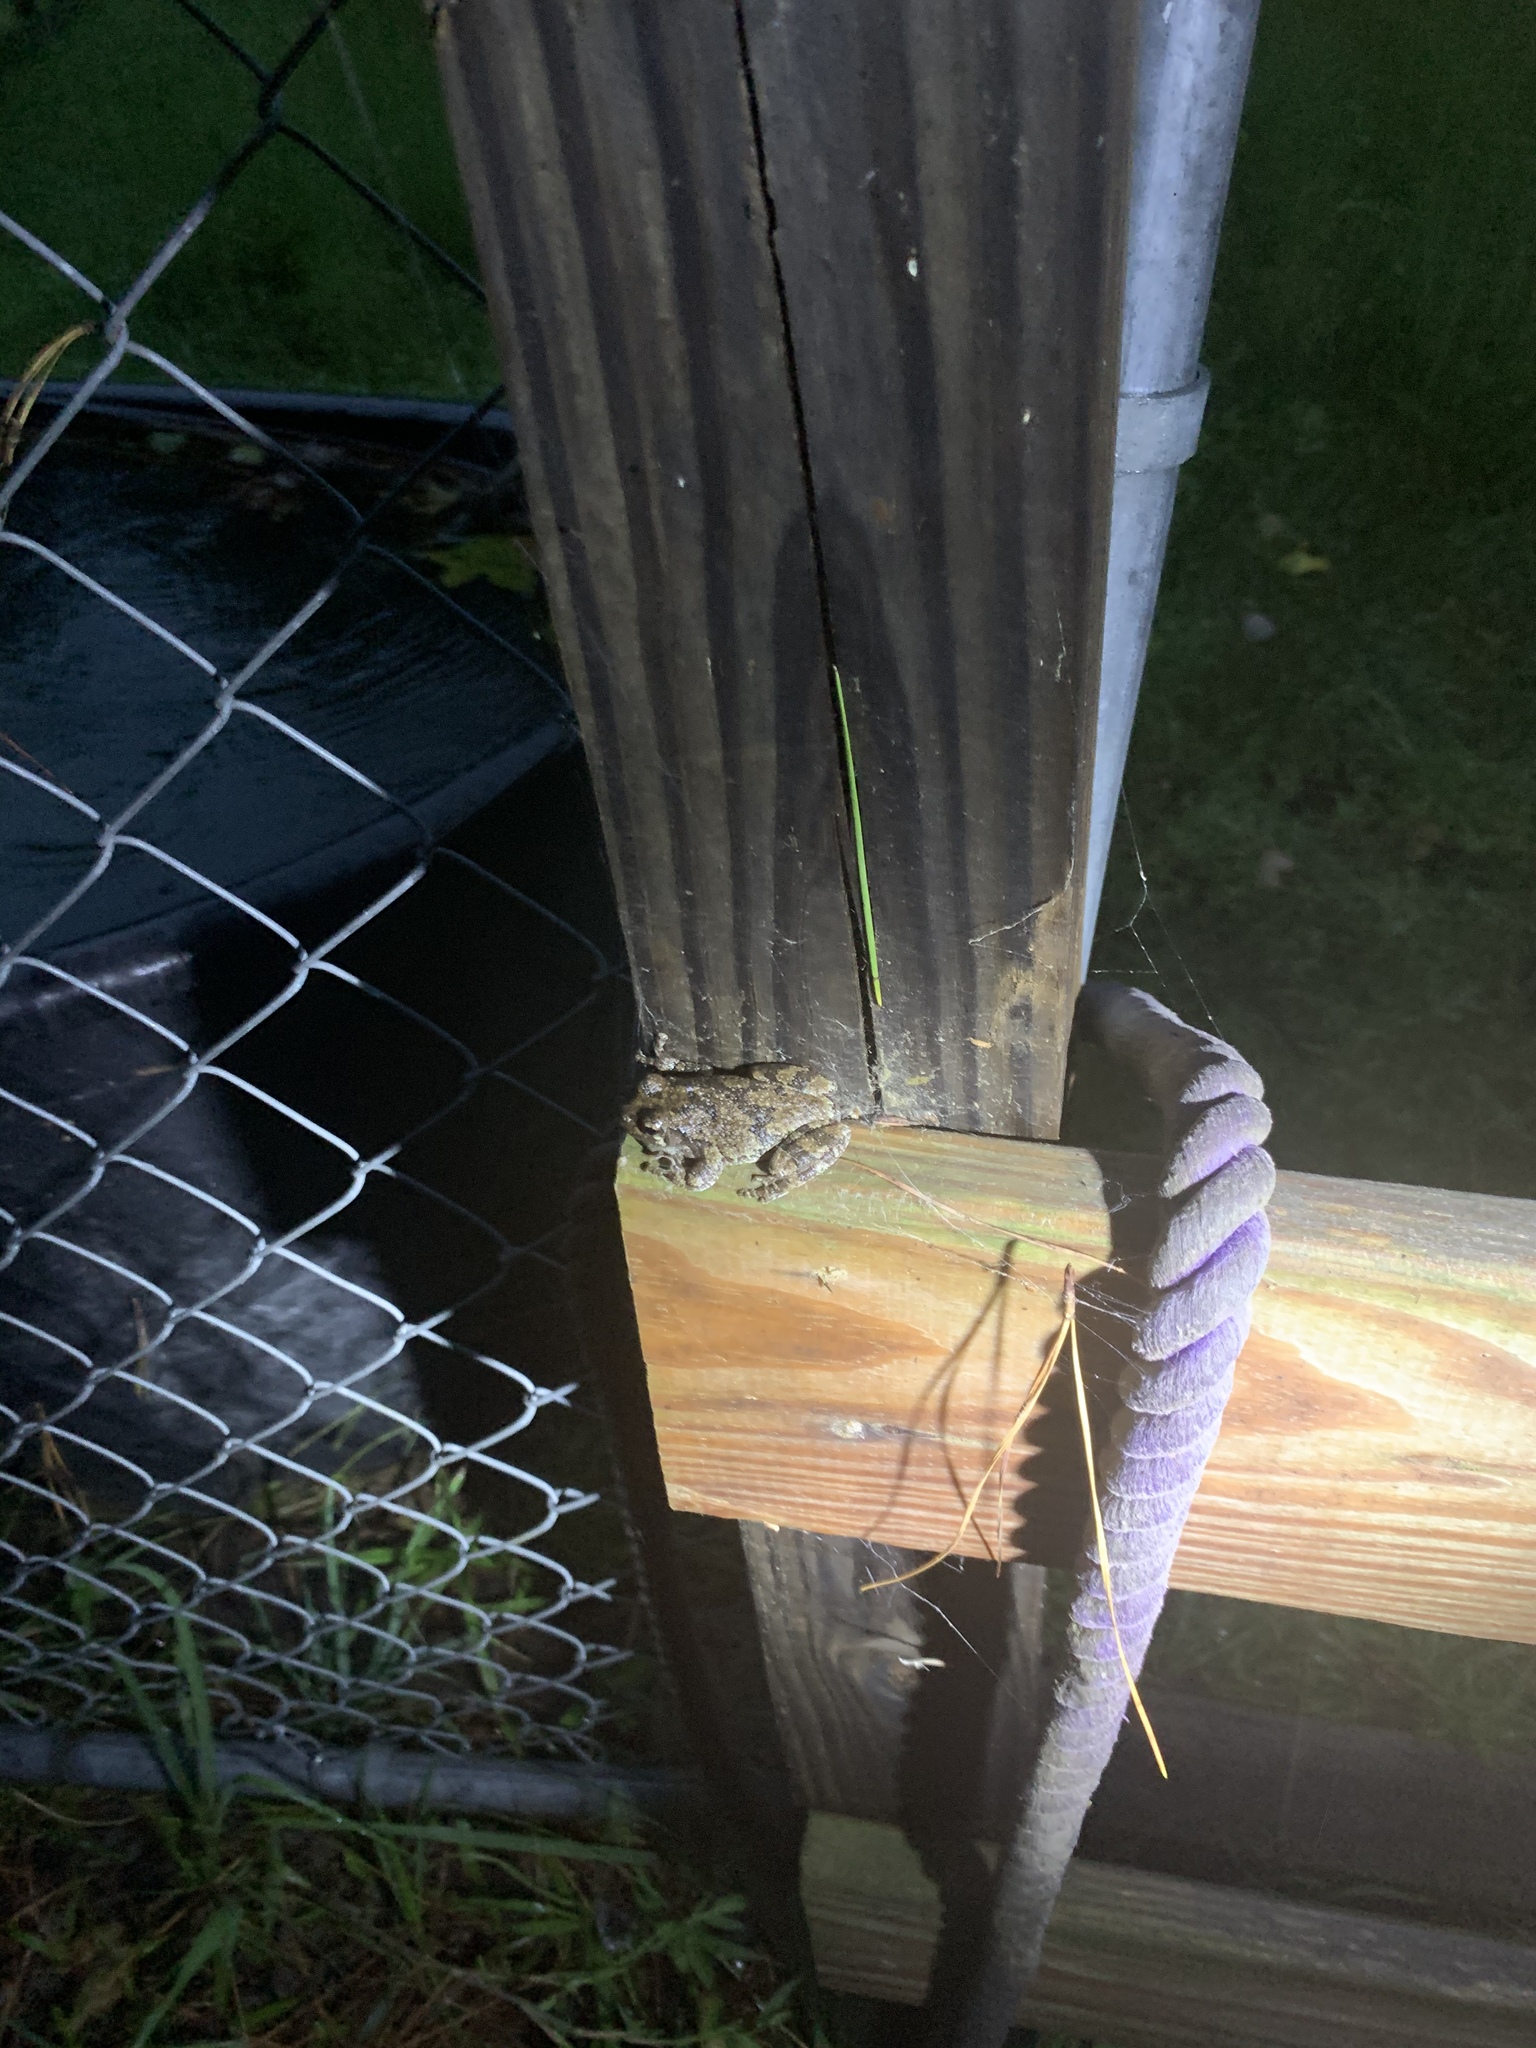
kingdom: Animalia
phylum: Chordata
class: Amphibia
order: Anura
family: Hylidae
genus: Dryophytes
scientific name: Dryophytes chrysoscelis
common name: Cope's gray treefrog
